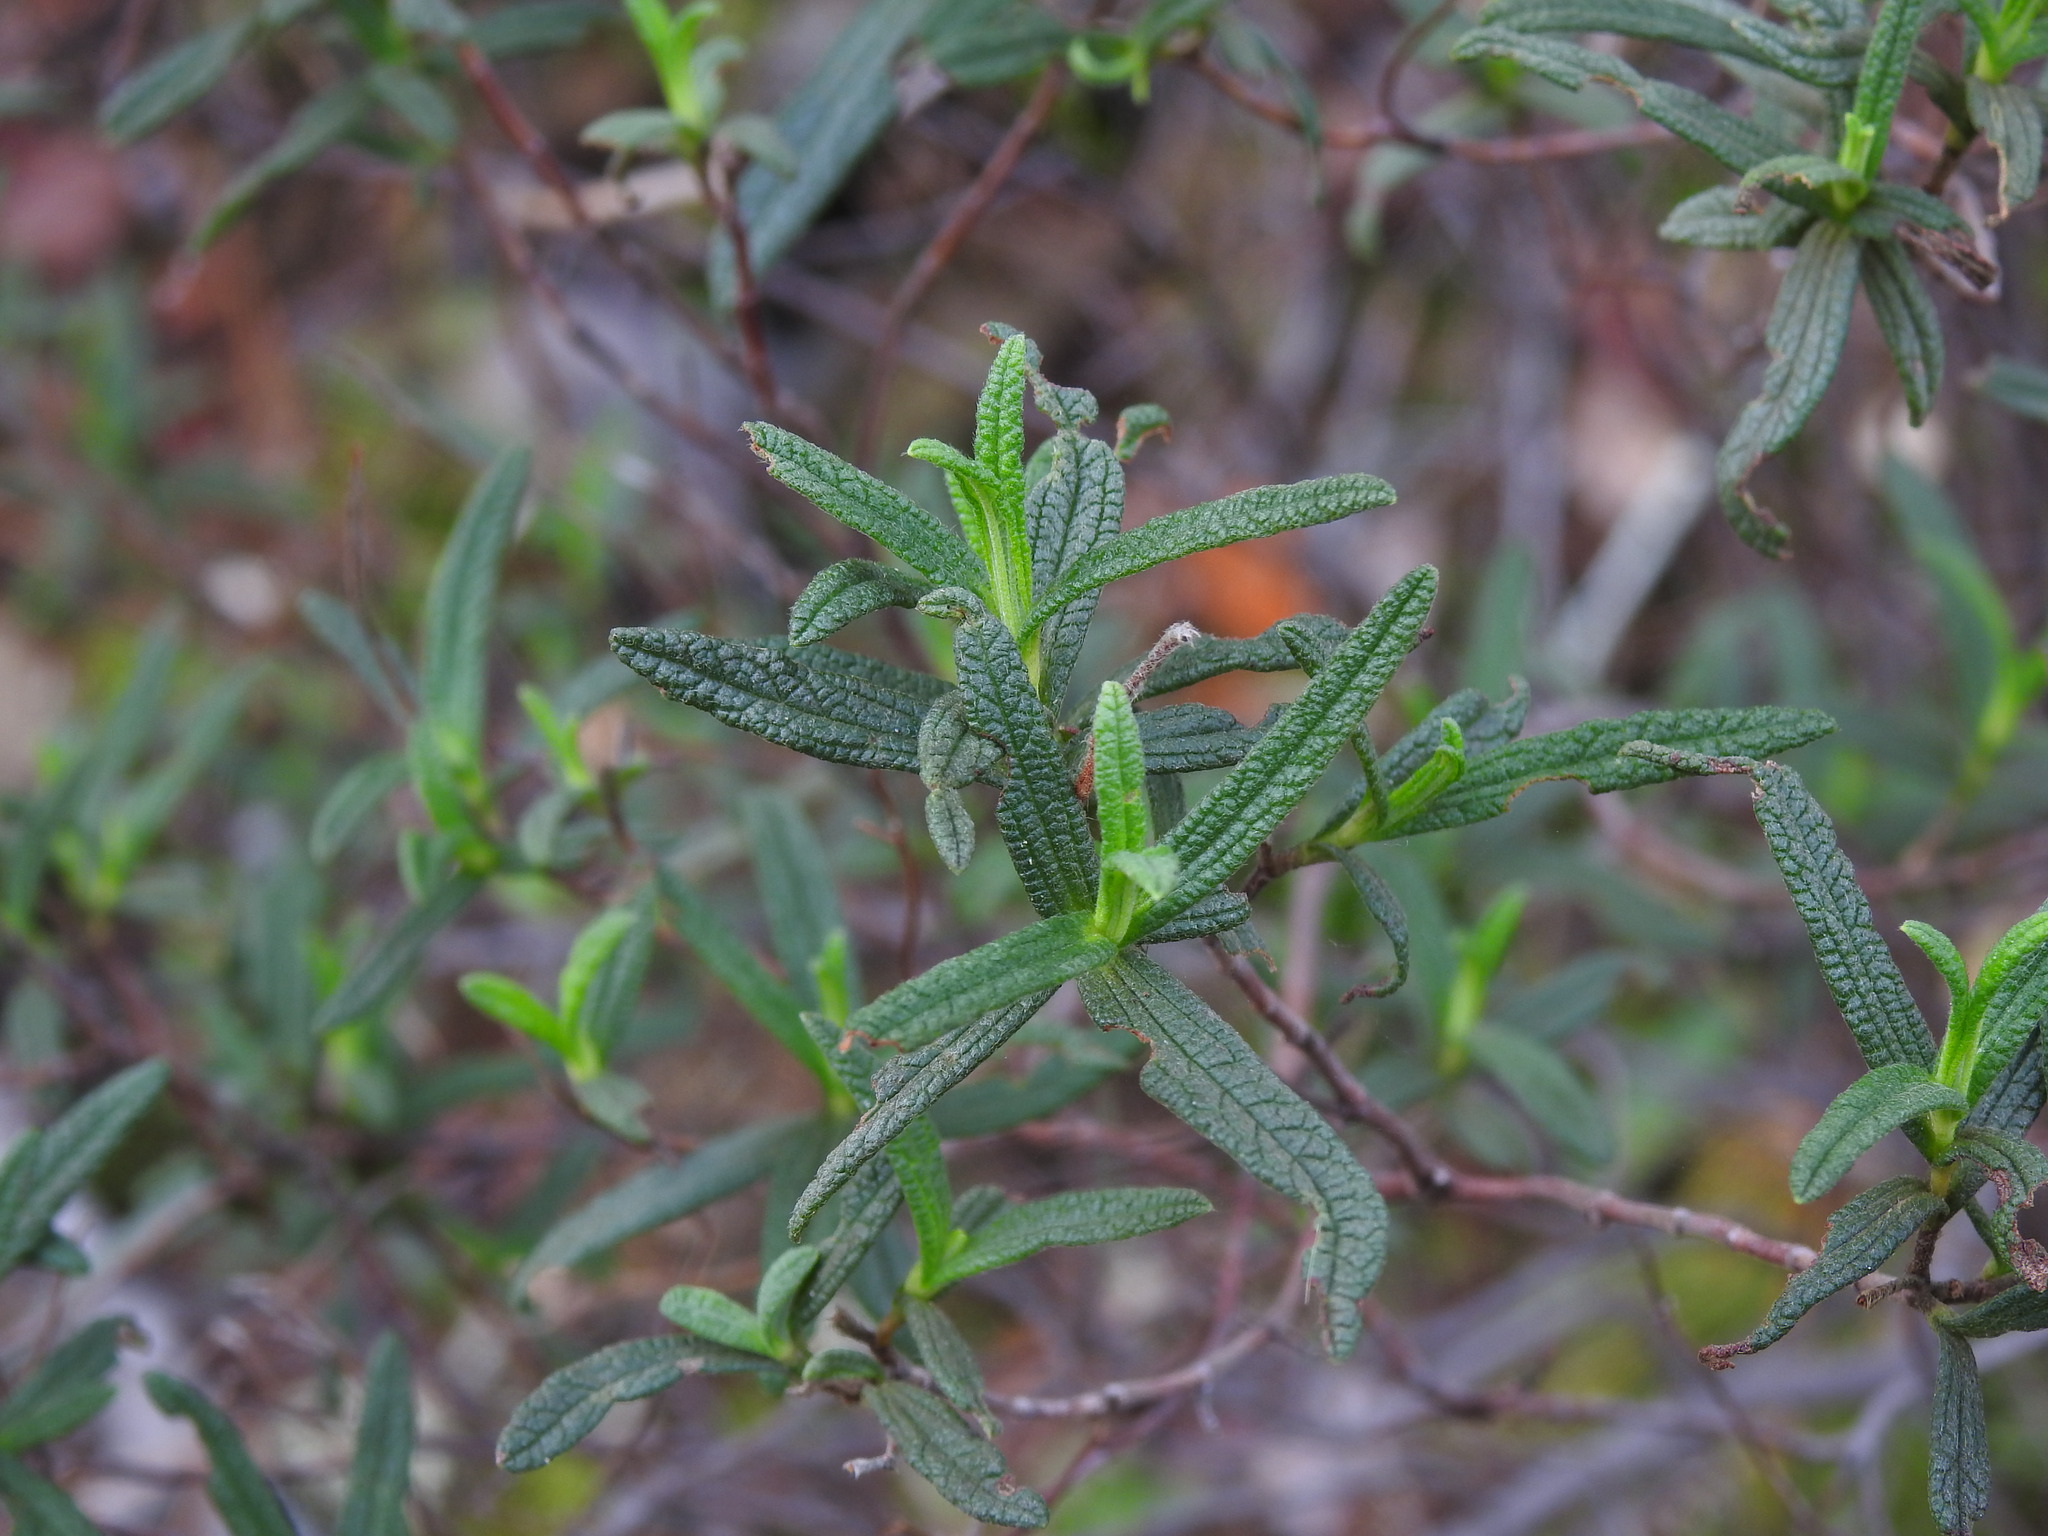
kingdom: Plantae
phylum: Tracheophyta
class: Magnoliopsida
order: Malvales
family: Cistaceae
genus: Cistus
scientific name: Cistus monspeliensis
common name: Montpelier cistus
